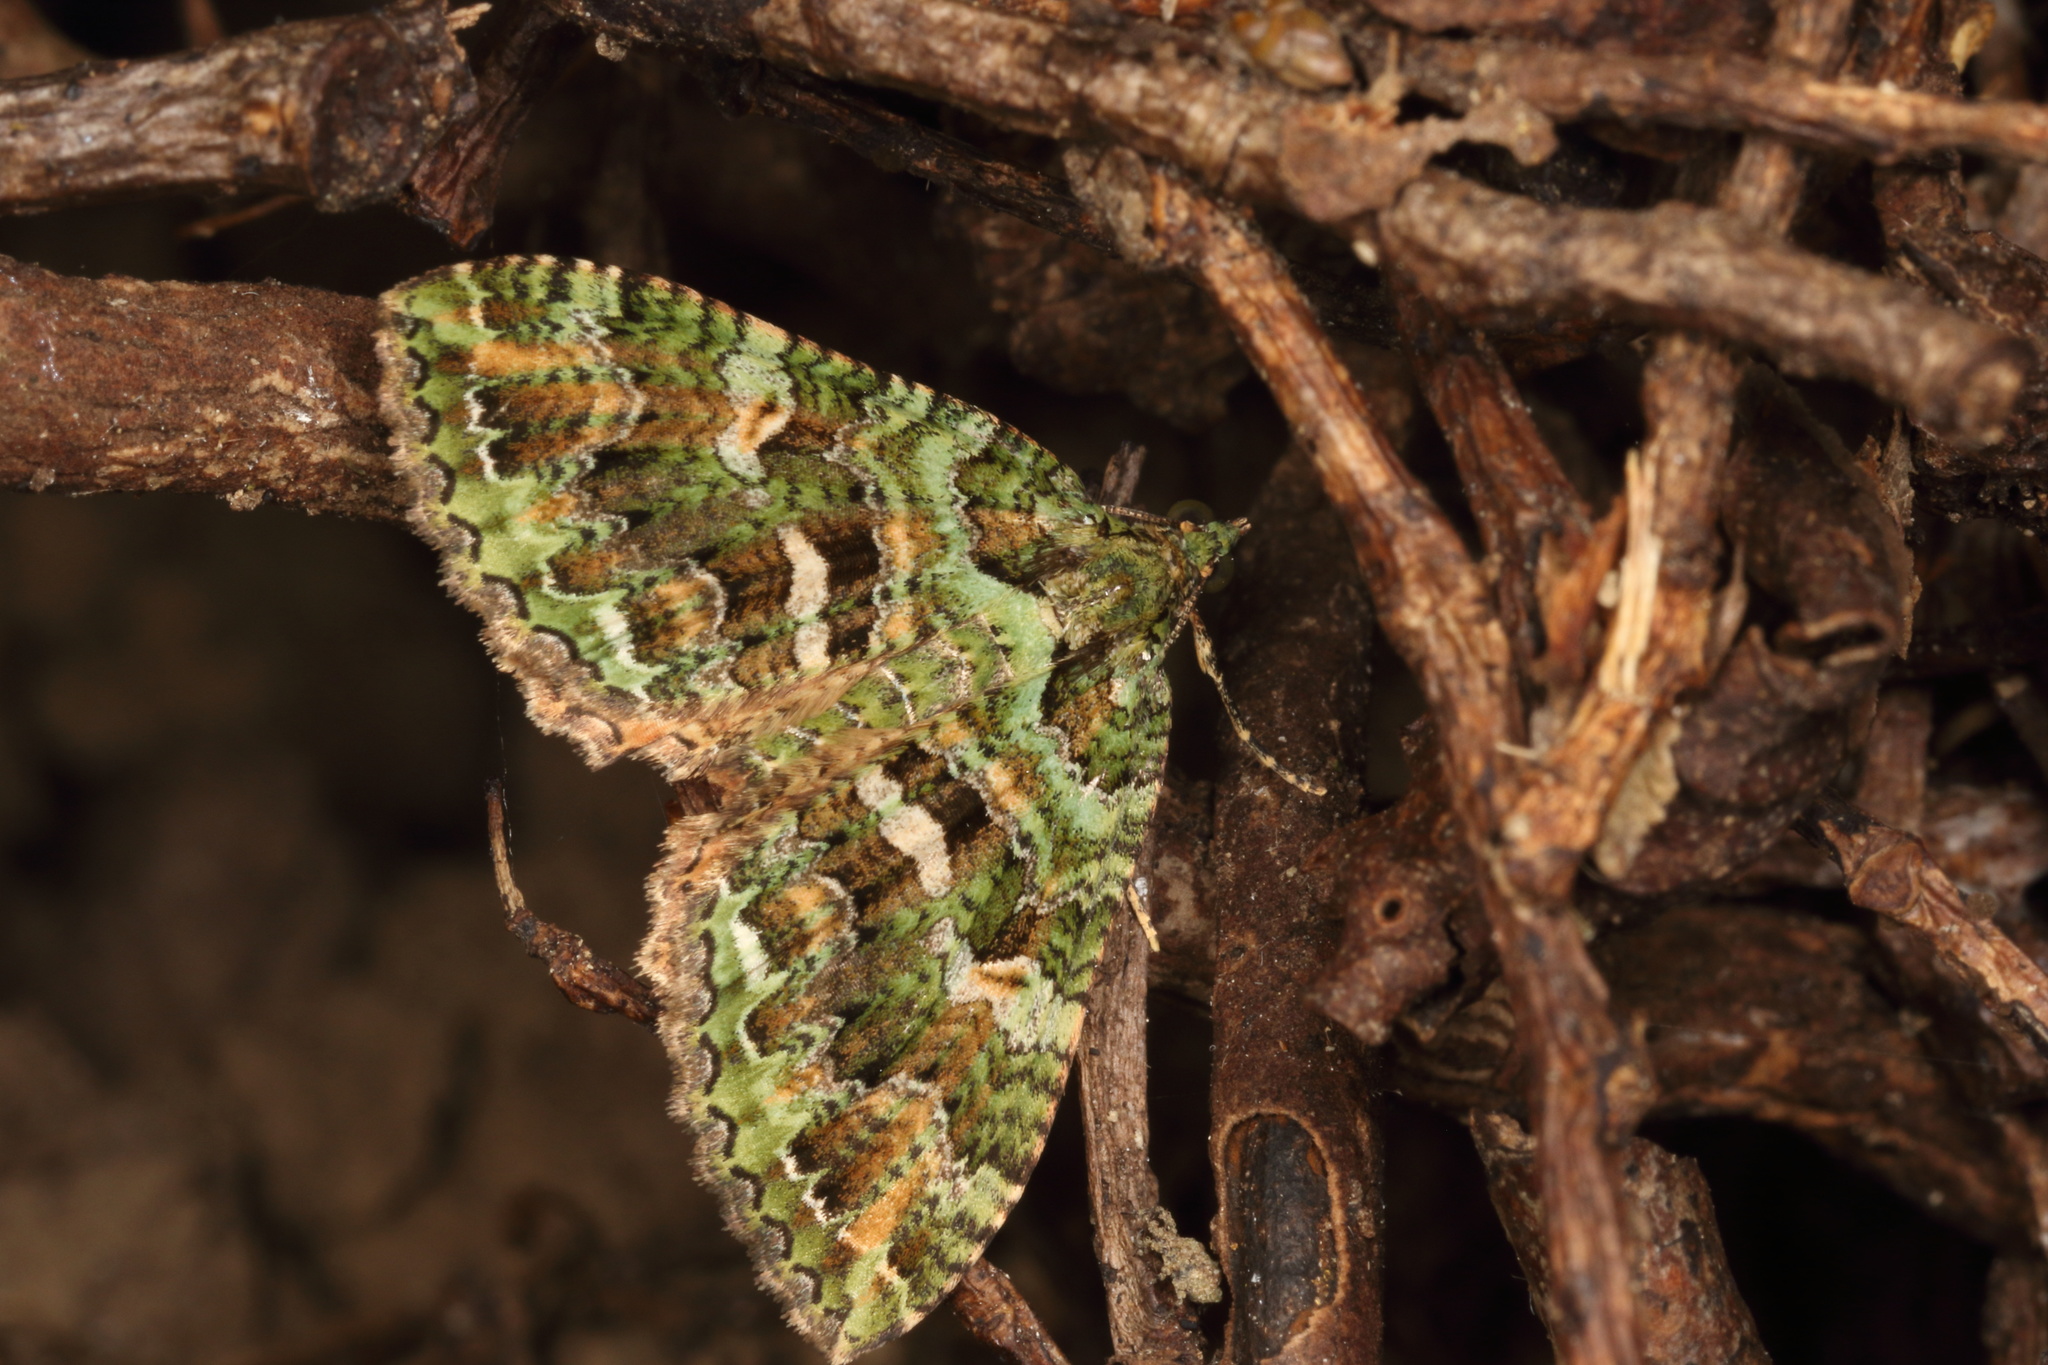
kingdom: Animalia
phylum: Arthropoda
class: Insecta
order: Lepidoptera
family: Geometridae
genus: Austrocidaria
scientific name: Austrocidaria similata
